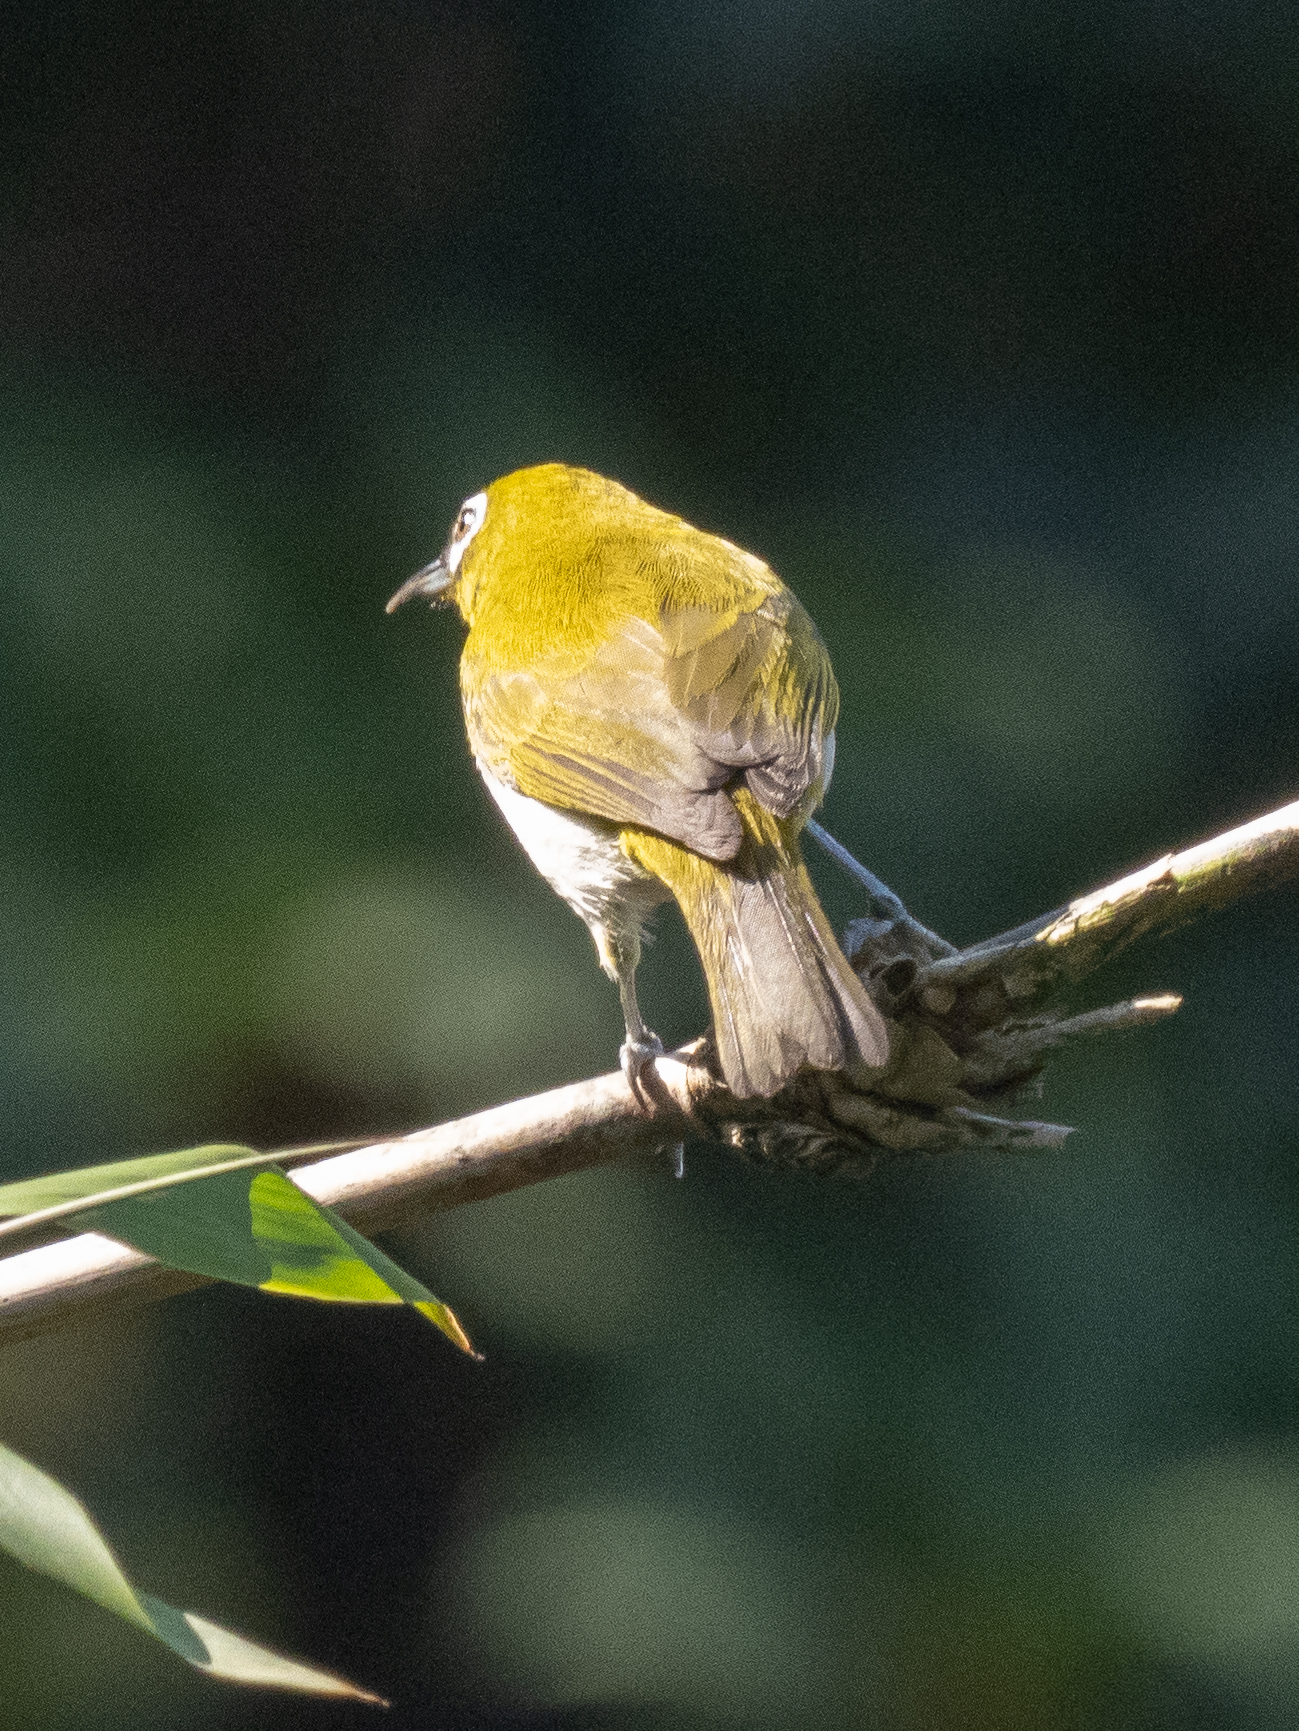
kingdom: Animalia
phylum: Chordata
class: Aves
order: Passeriformes
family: Zosteropidae
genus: Zosterops
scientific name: Zosterops ceylonensis
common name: Sri lanka white-eye
